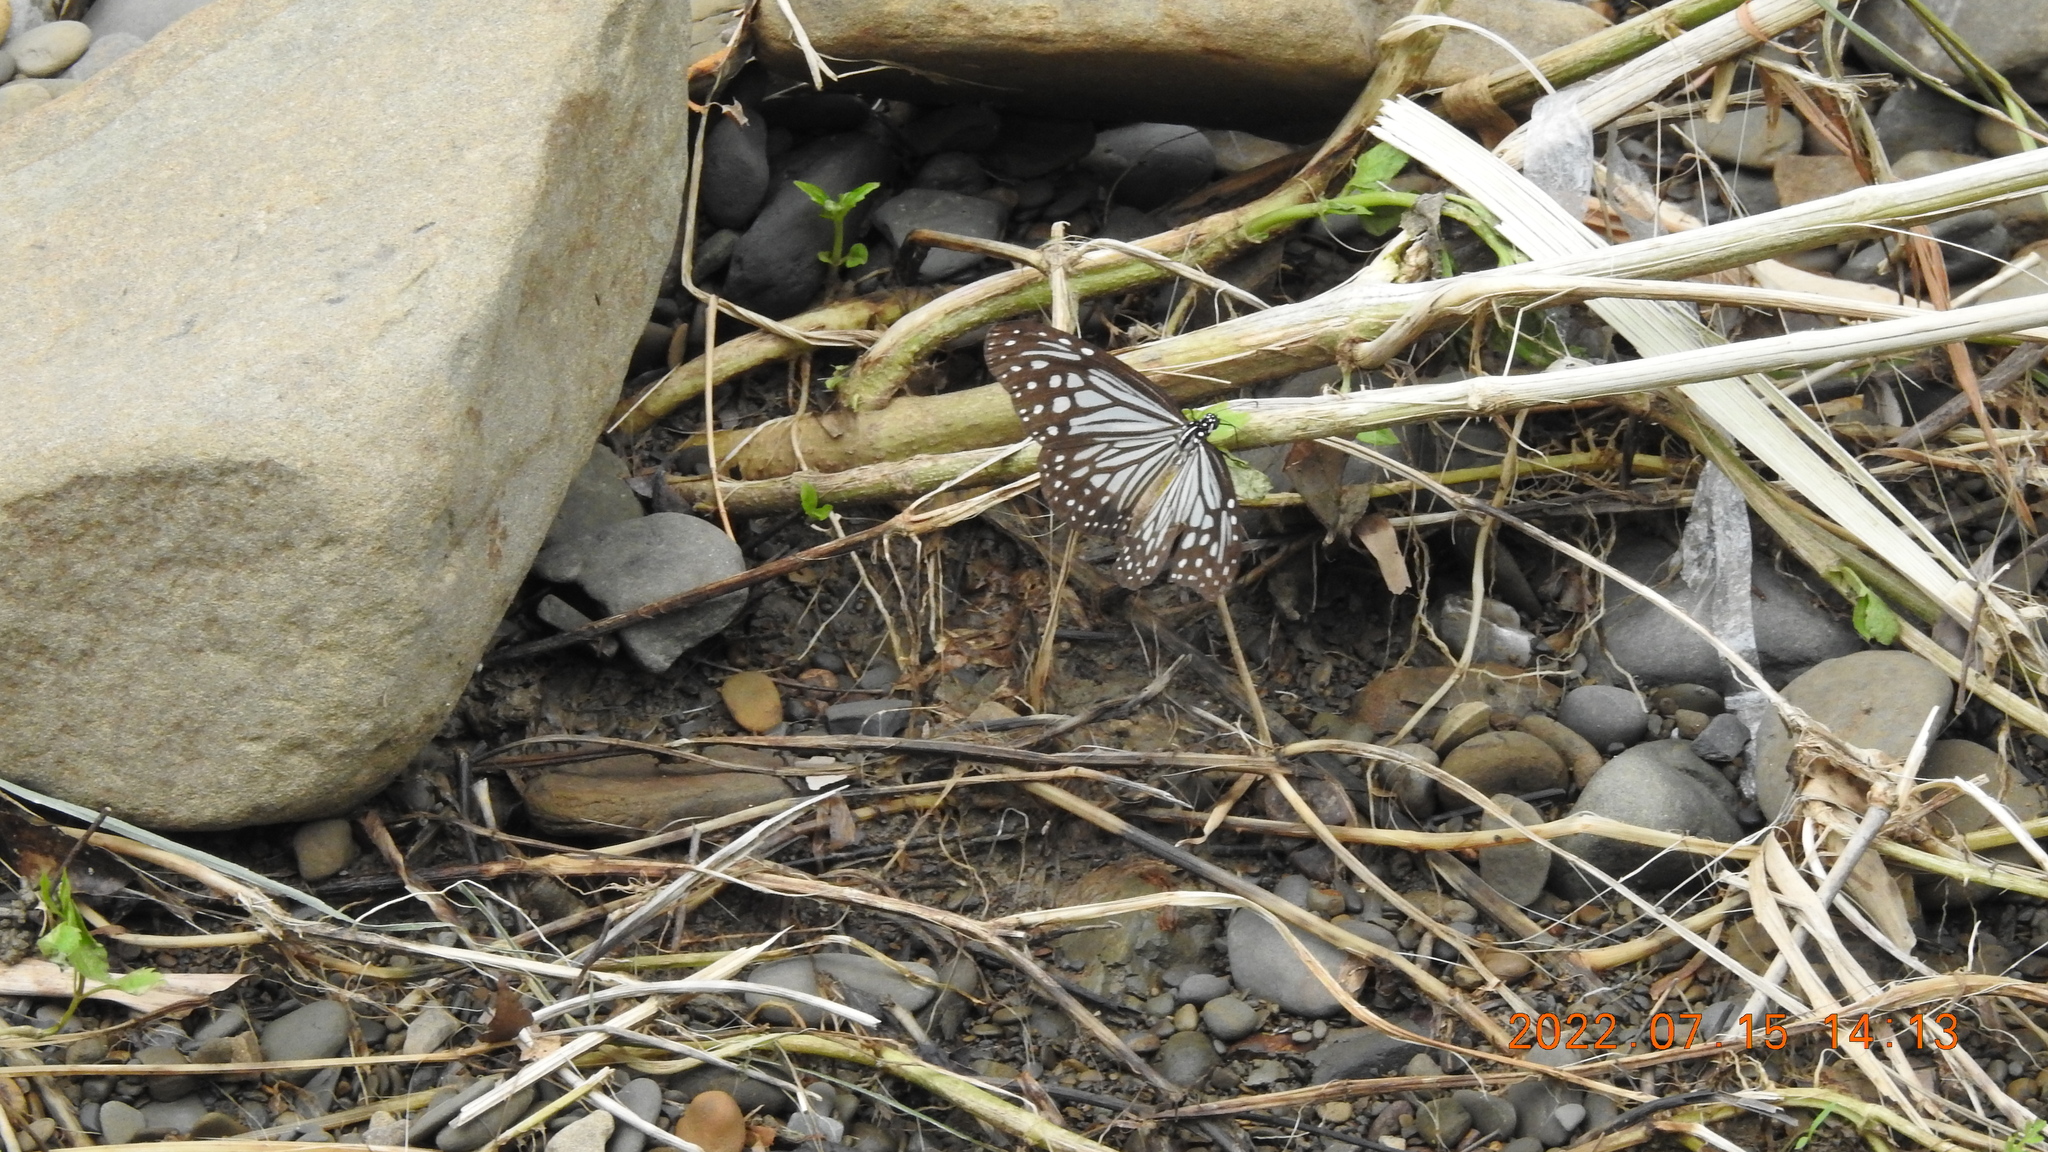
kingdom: Animalia
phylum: Arthropoda
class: Insecta
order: Lepidoptera
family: Nymphalidae
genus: Parantica
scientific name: Parantica aglea
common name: Glassy tiger
